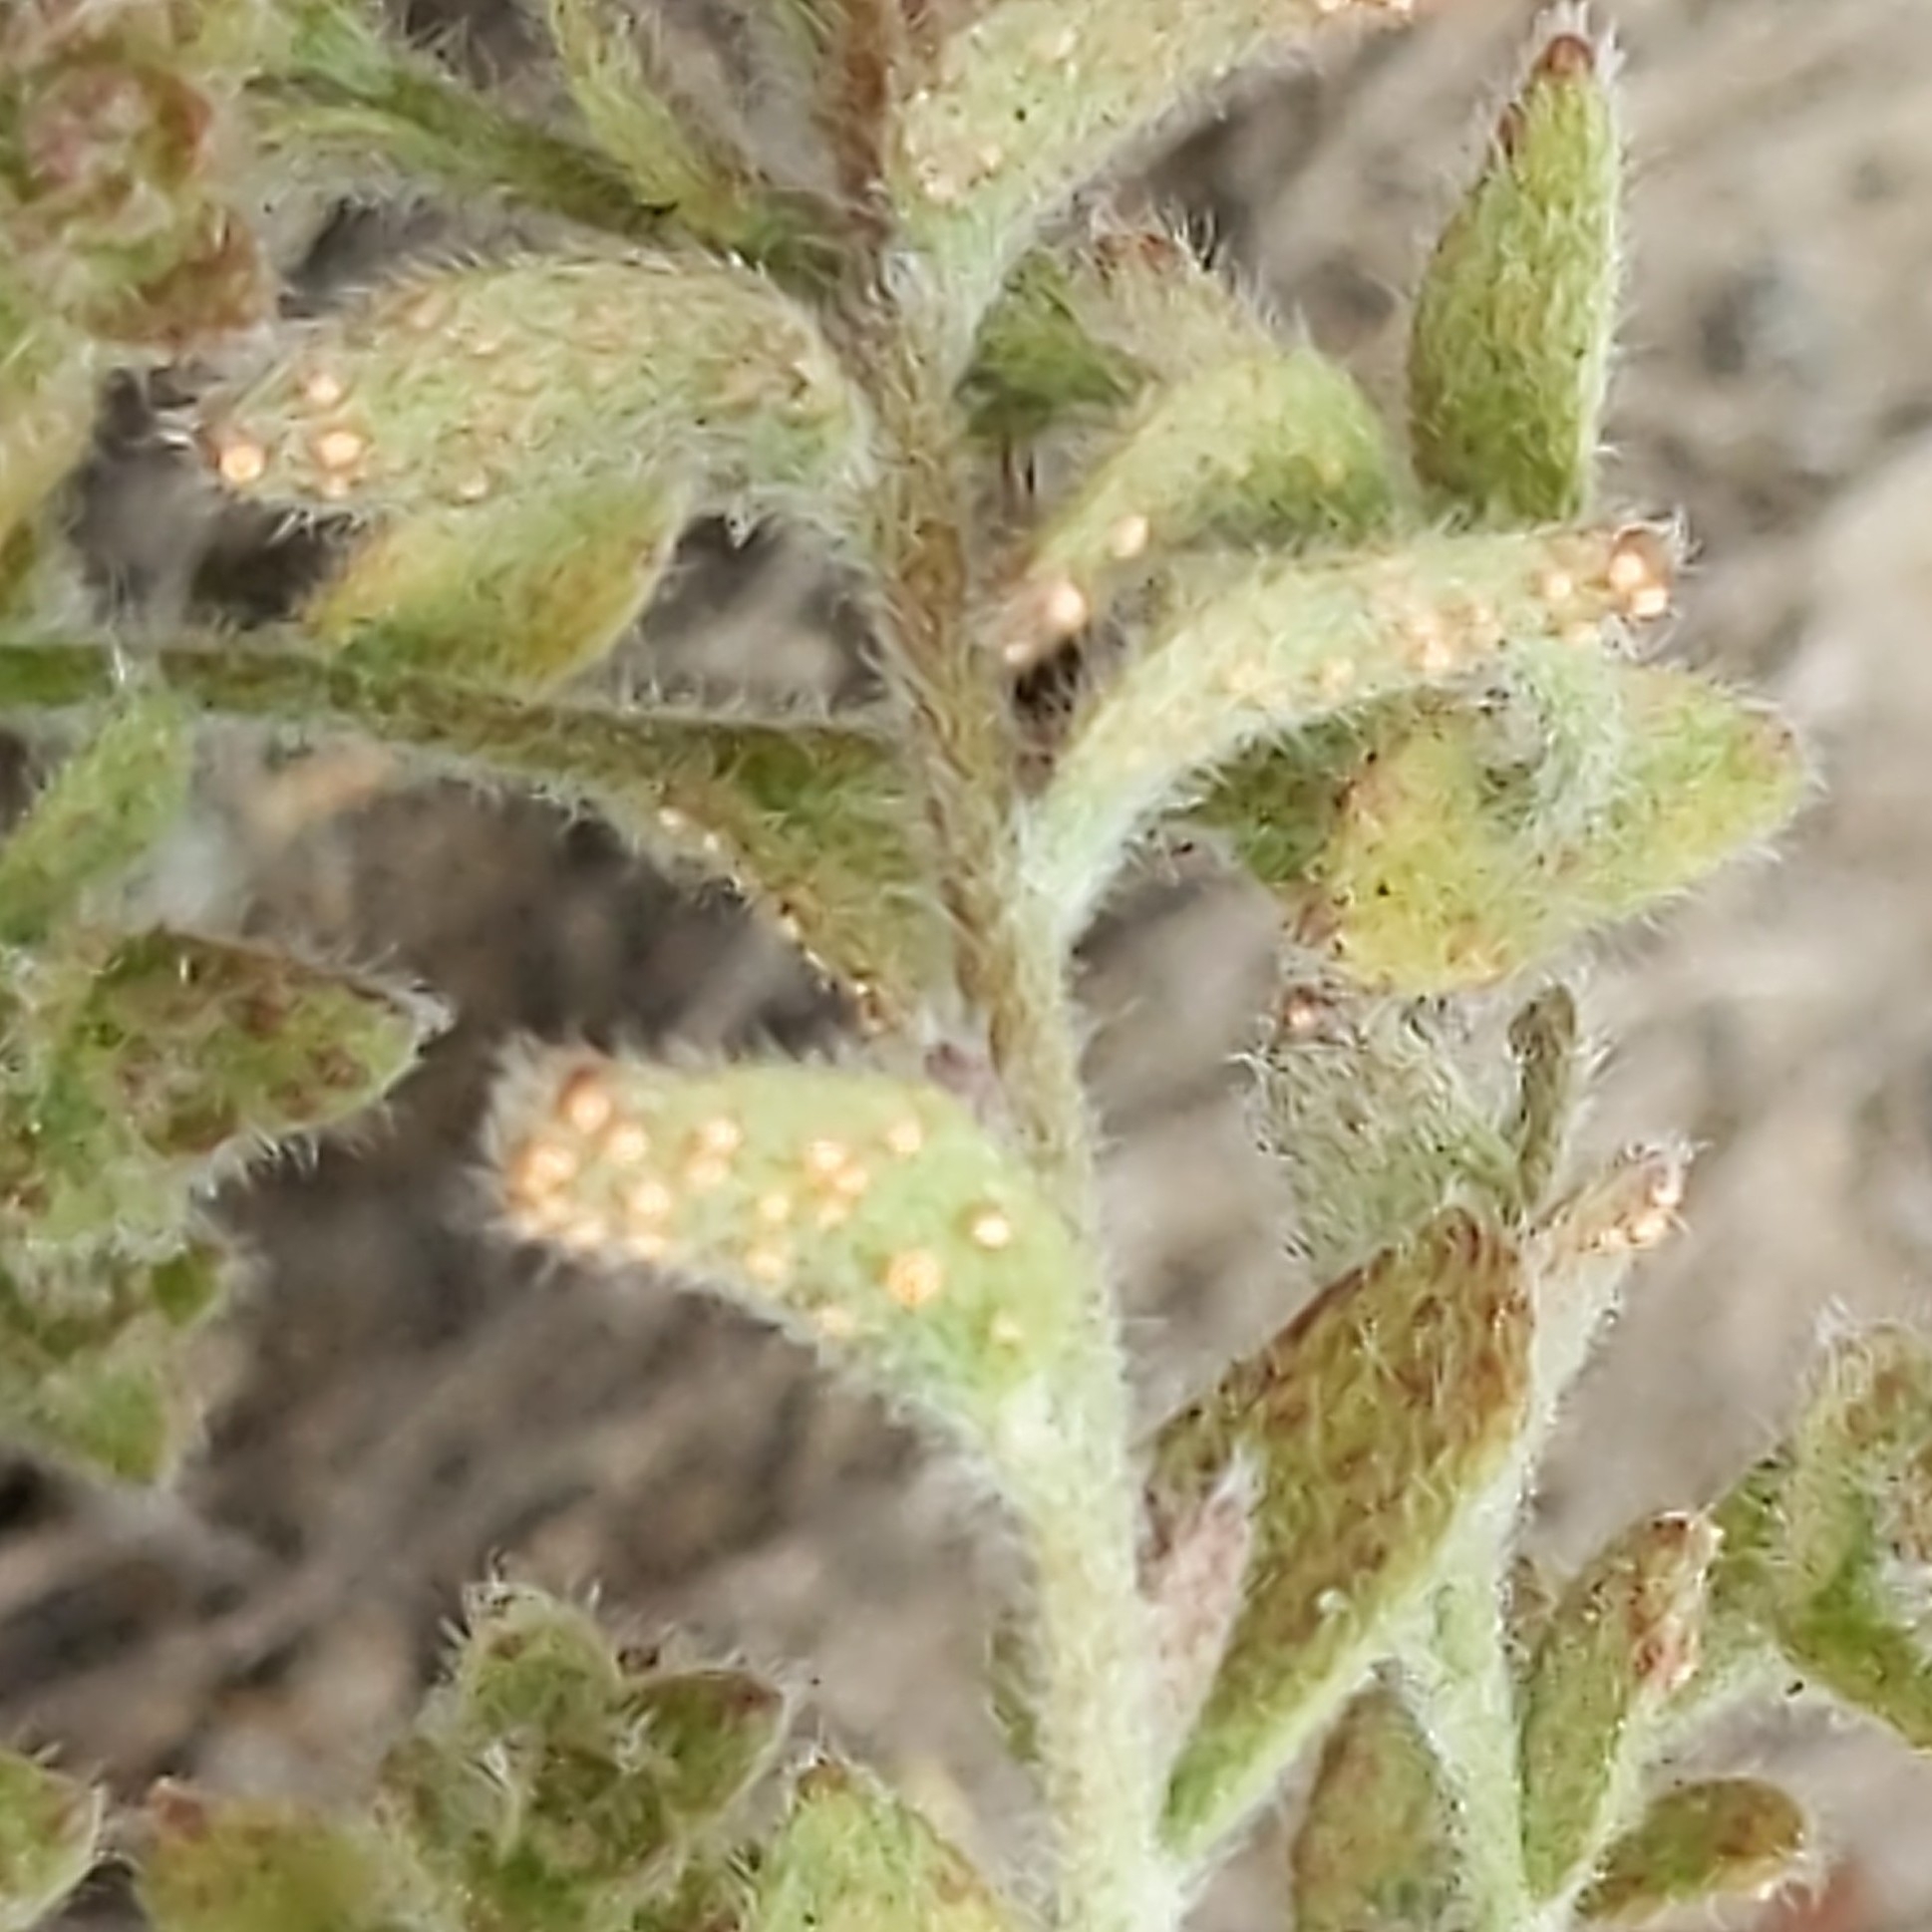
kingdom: Plantae
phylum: Tracheophyta
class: Magnoliopsida
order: Solanales
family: Convolvulaceae
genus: Cressa
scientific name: Cressa truxillensis
